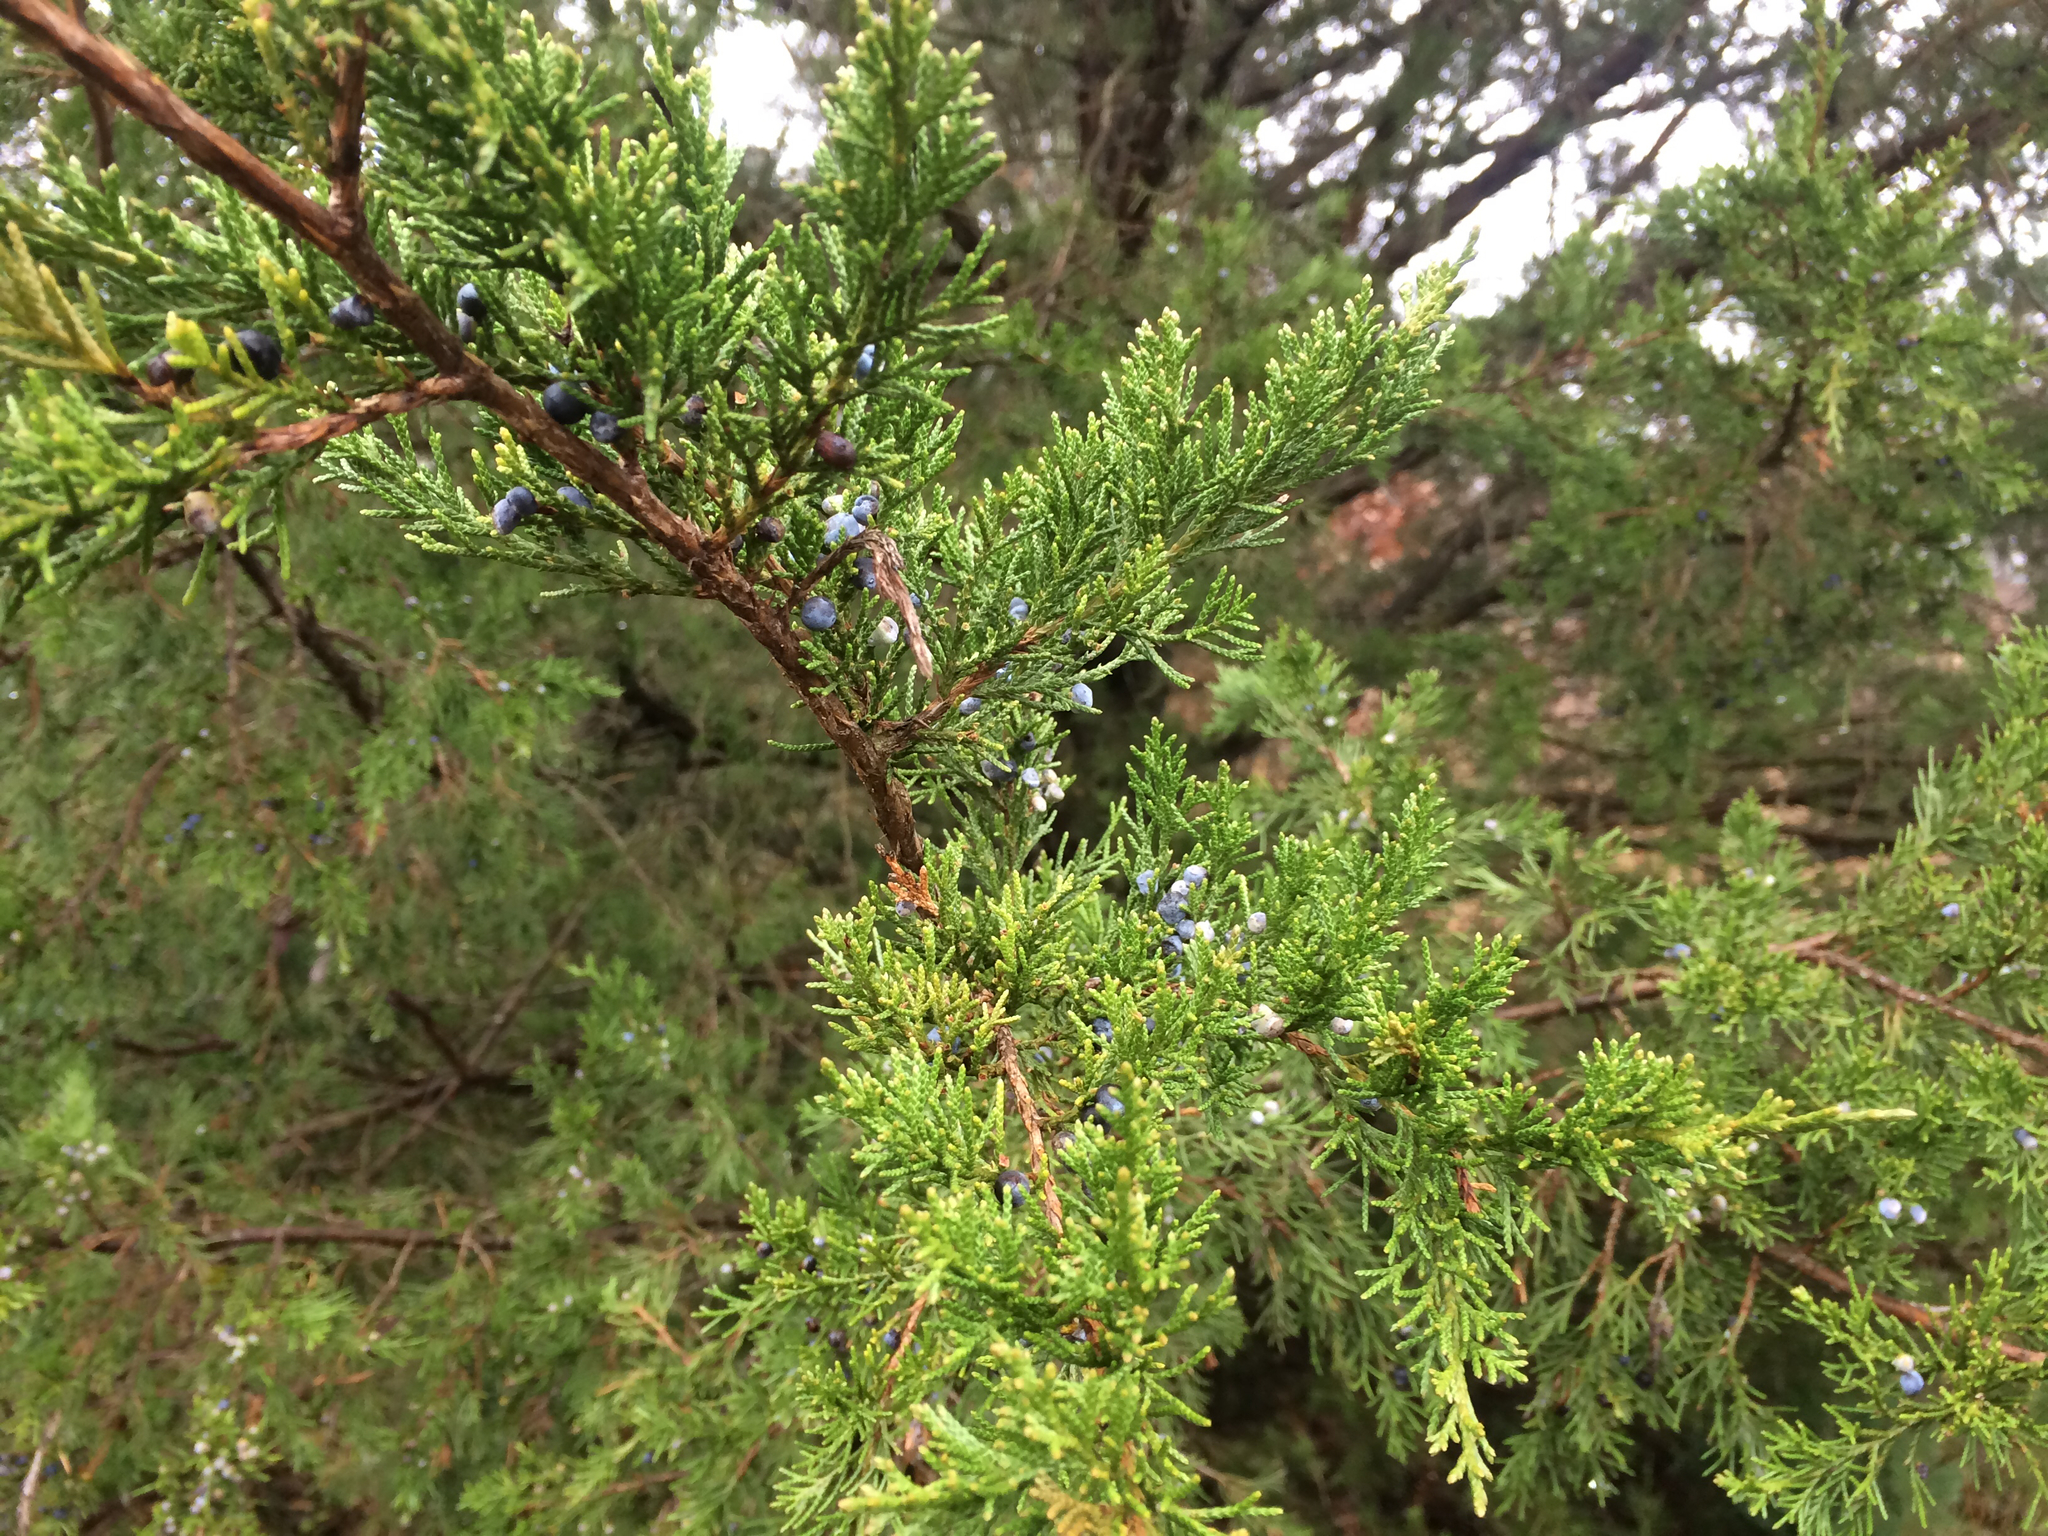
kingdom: Plantae
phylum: Tracheophyta
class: Pinopsida
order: Pinales
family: Cupressaceae
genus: Juniperus
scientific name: Juniperus virginiana
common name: Red juniper
